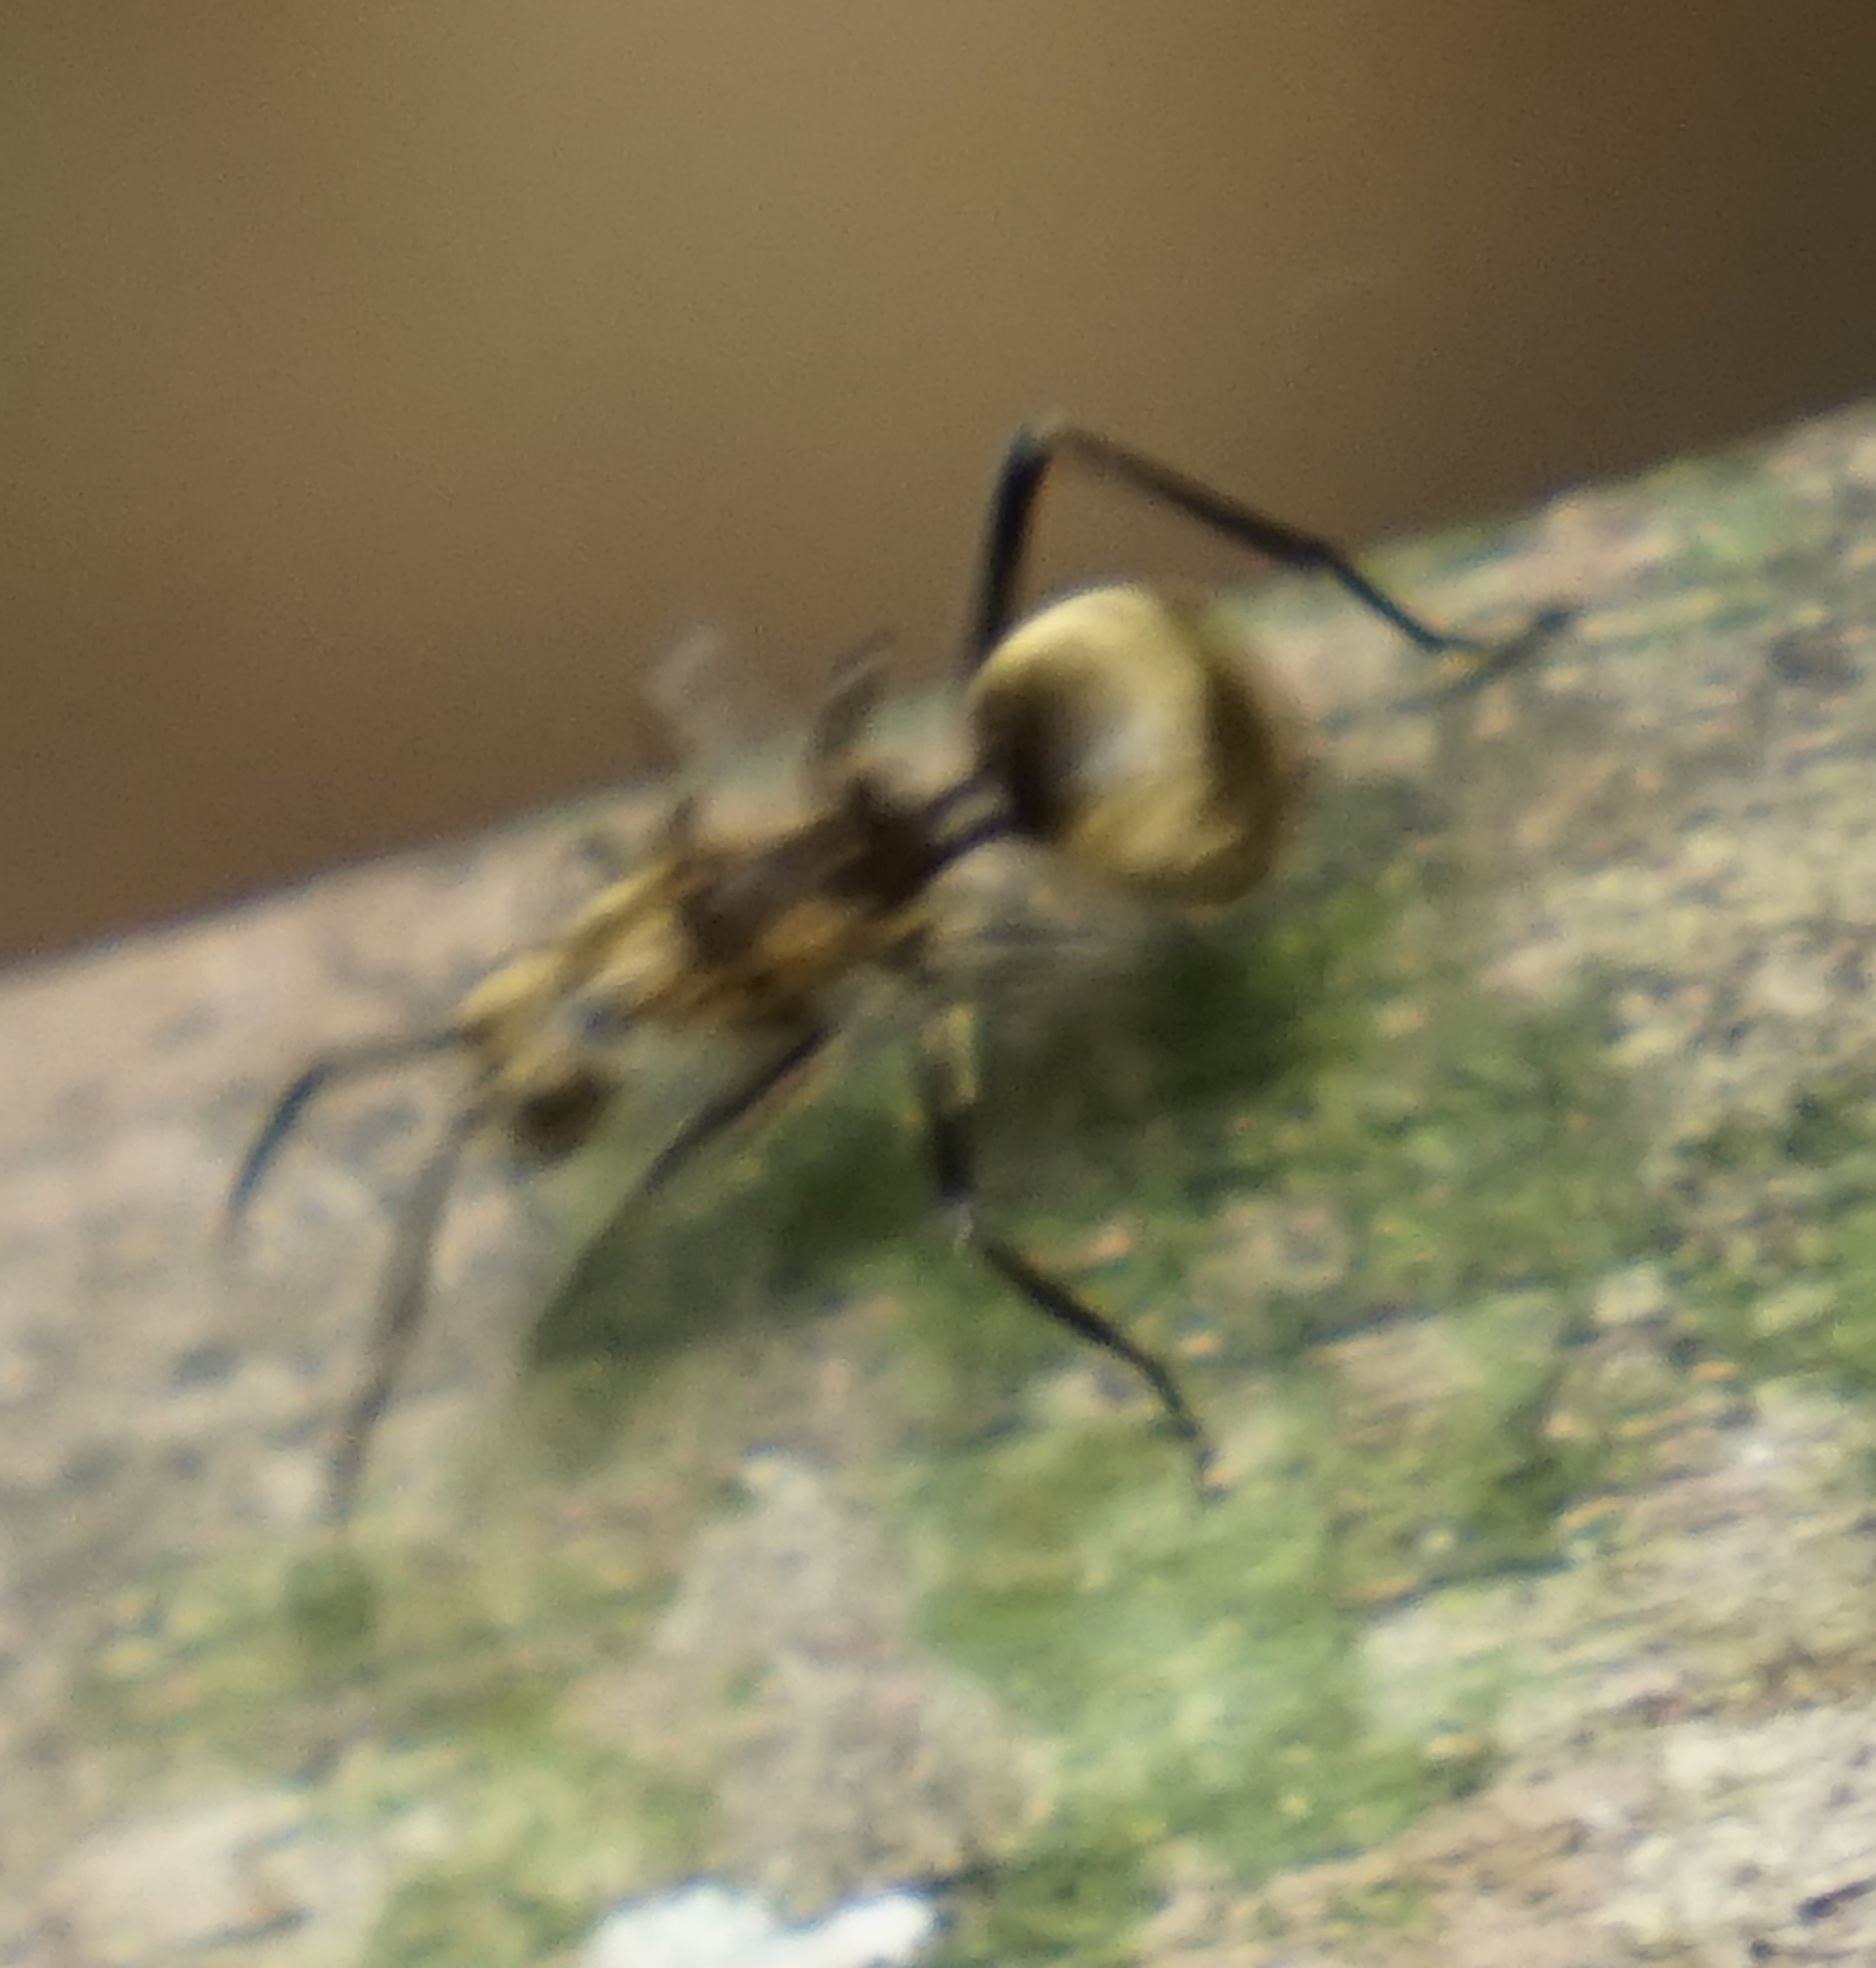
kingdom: Animalia
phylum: Arthropoda
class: Insecta
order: Hymenoptera
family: Formicidae
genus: Polyrhachis
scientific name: Polyrhachis ypsilon
